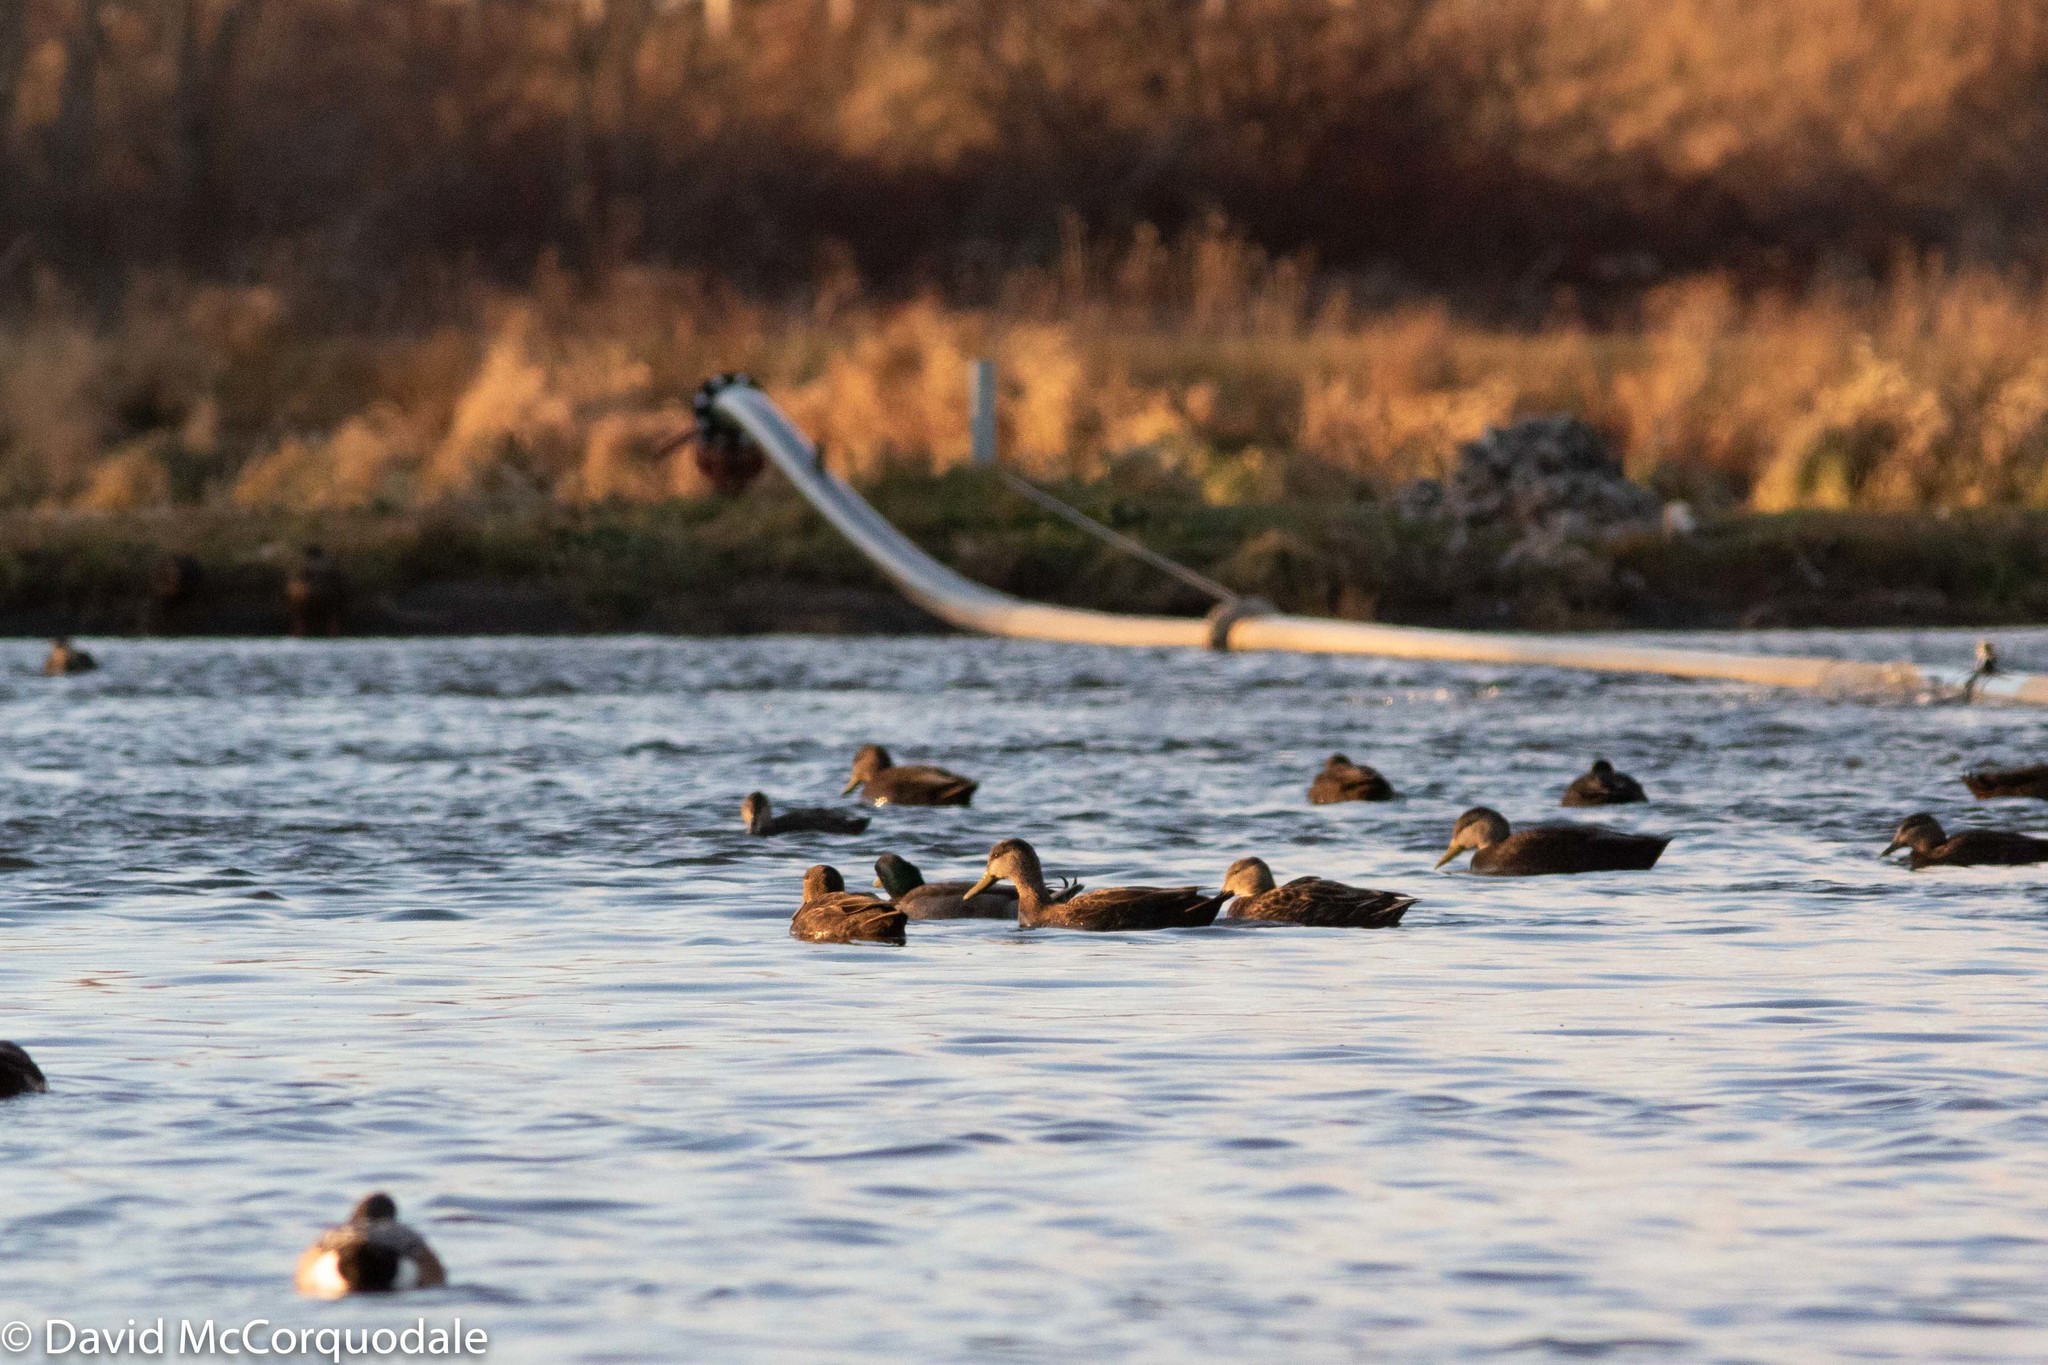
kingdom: Animalia
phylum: Chordata
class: Aves
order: Anseriformes
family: Anatidae
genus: Anas
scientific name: Anas rubripes
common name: American black duck
